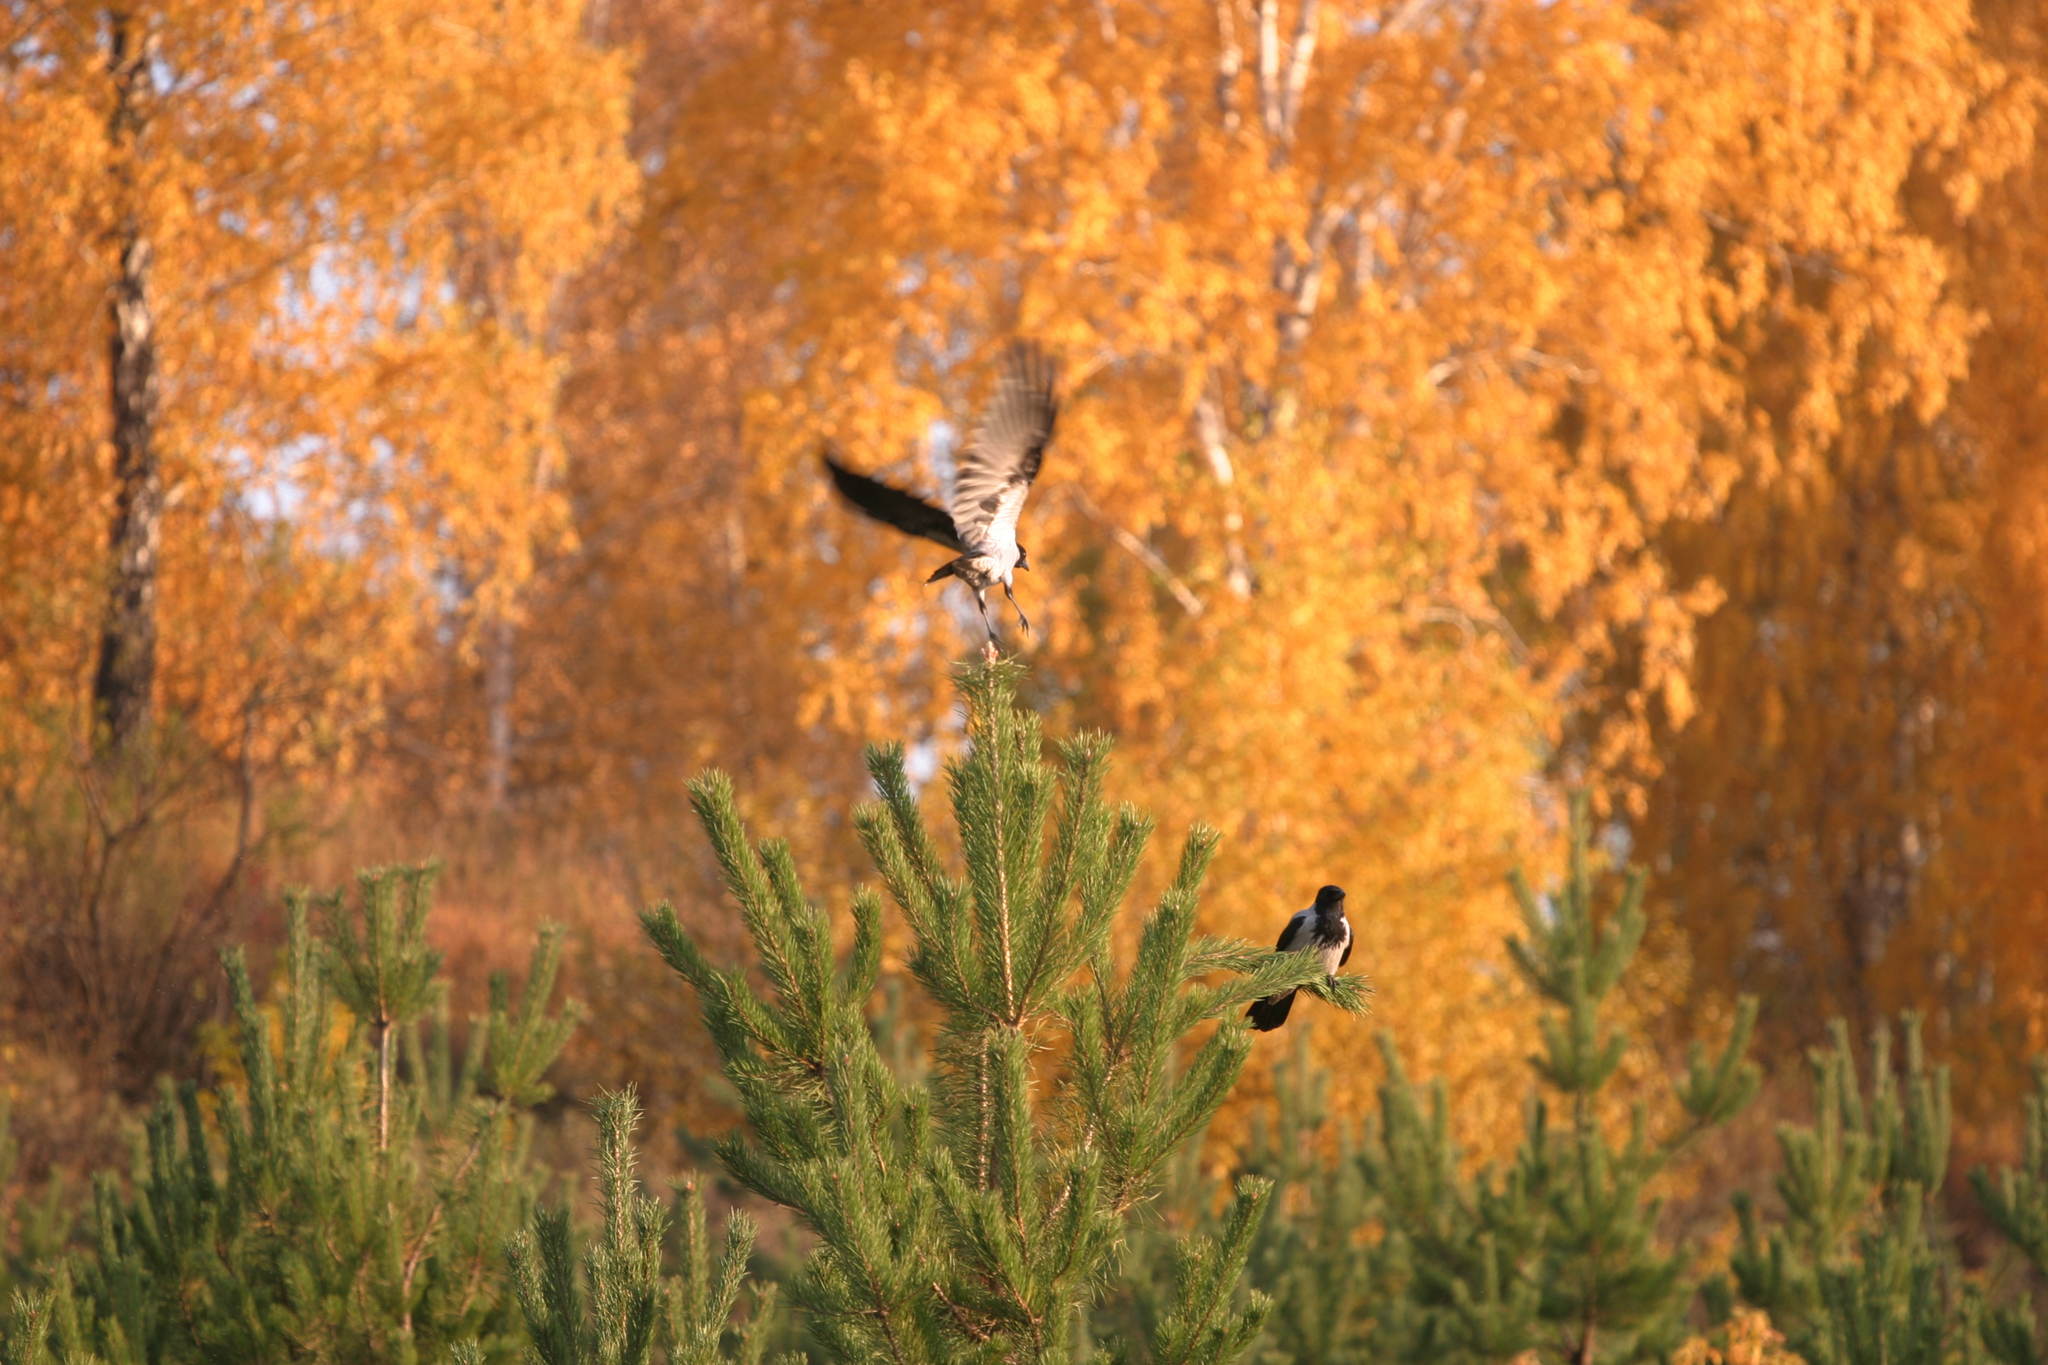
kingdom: Plantae
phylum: Tracheophyta
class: Pinopsida
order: Pinales
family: Pinaceae
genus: Pinus
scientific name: Pinus sylvestris
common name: Scots pine
